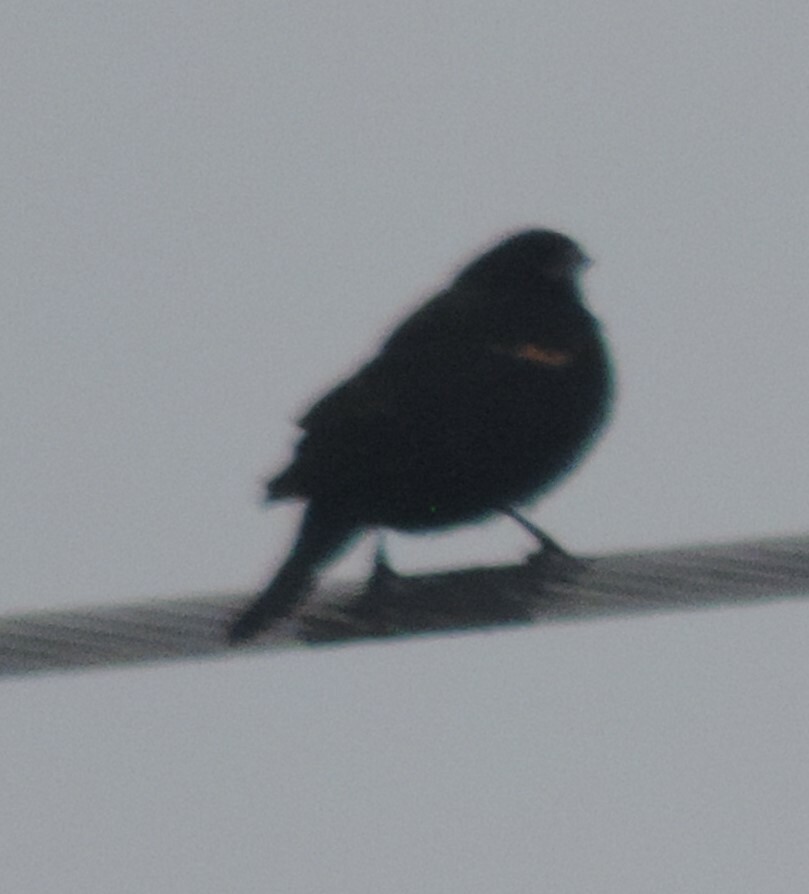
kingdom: Animalia
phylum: Chordata
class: Aves
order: Passeriformes
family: Icteridae
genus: Agelaius
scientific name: Agelaius phoeniceus
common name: Red-winged blackbird
